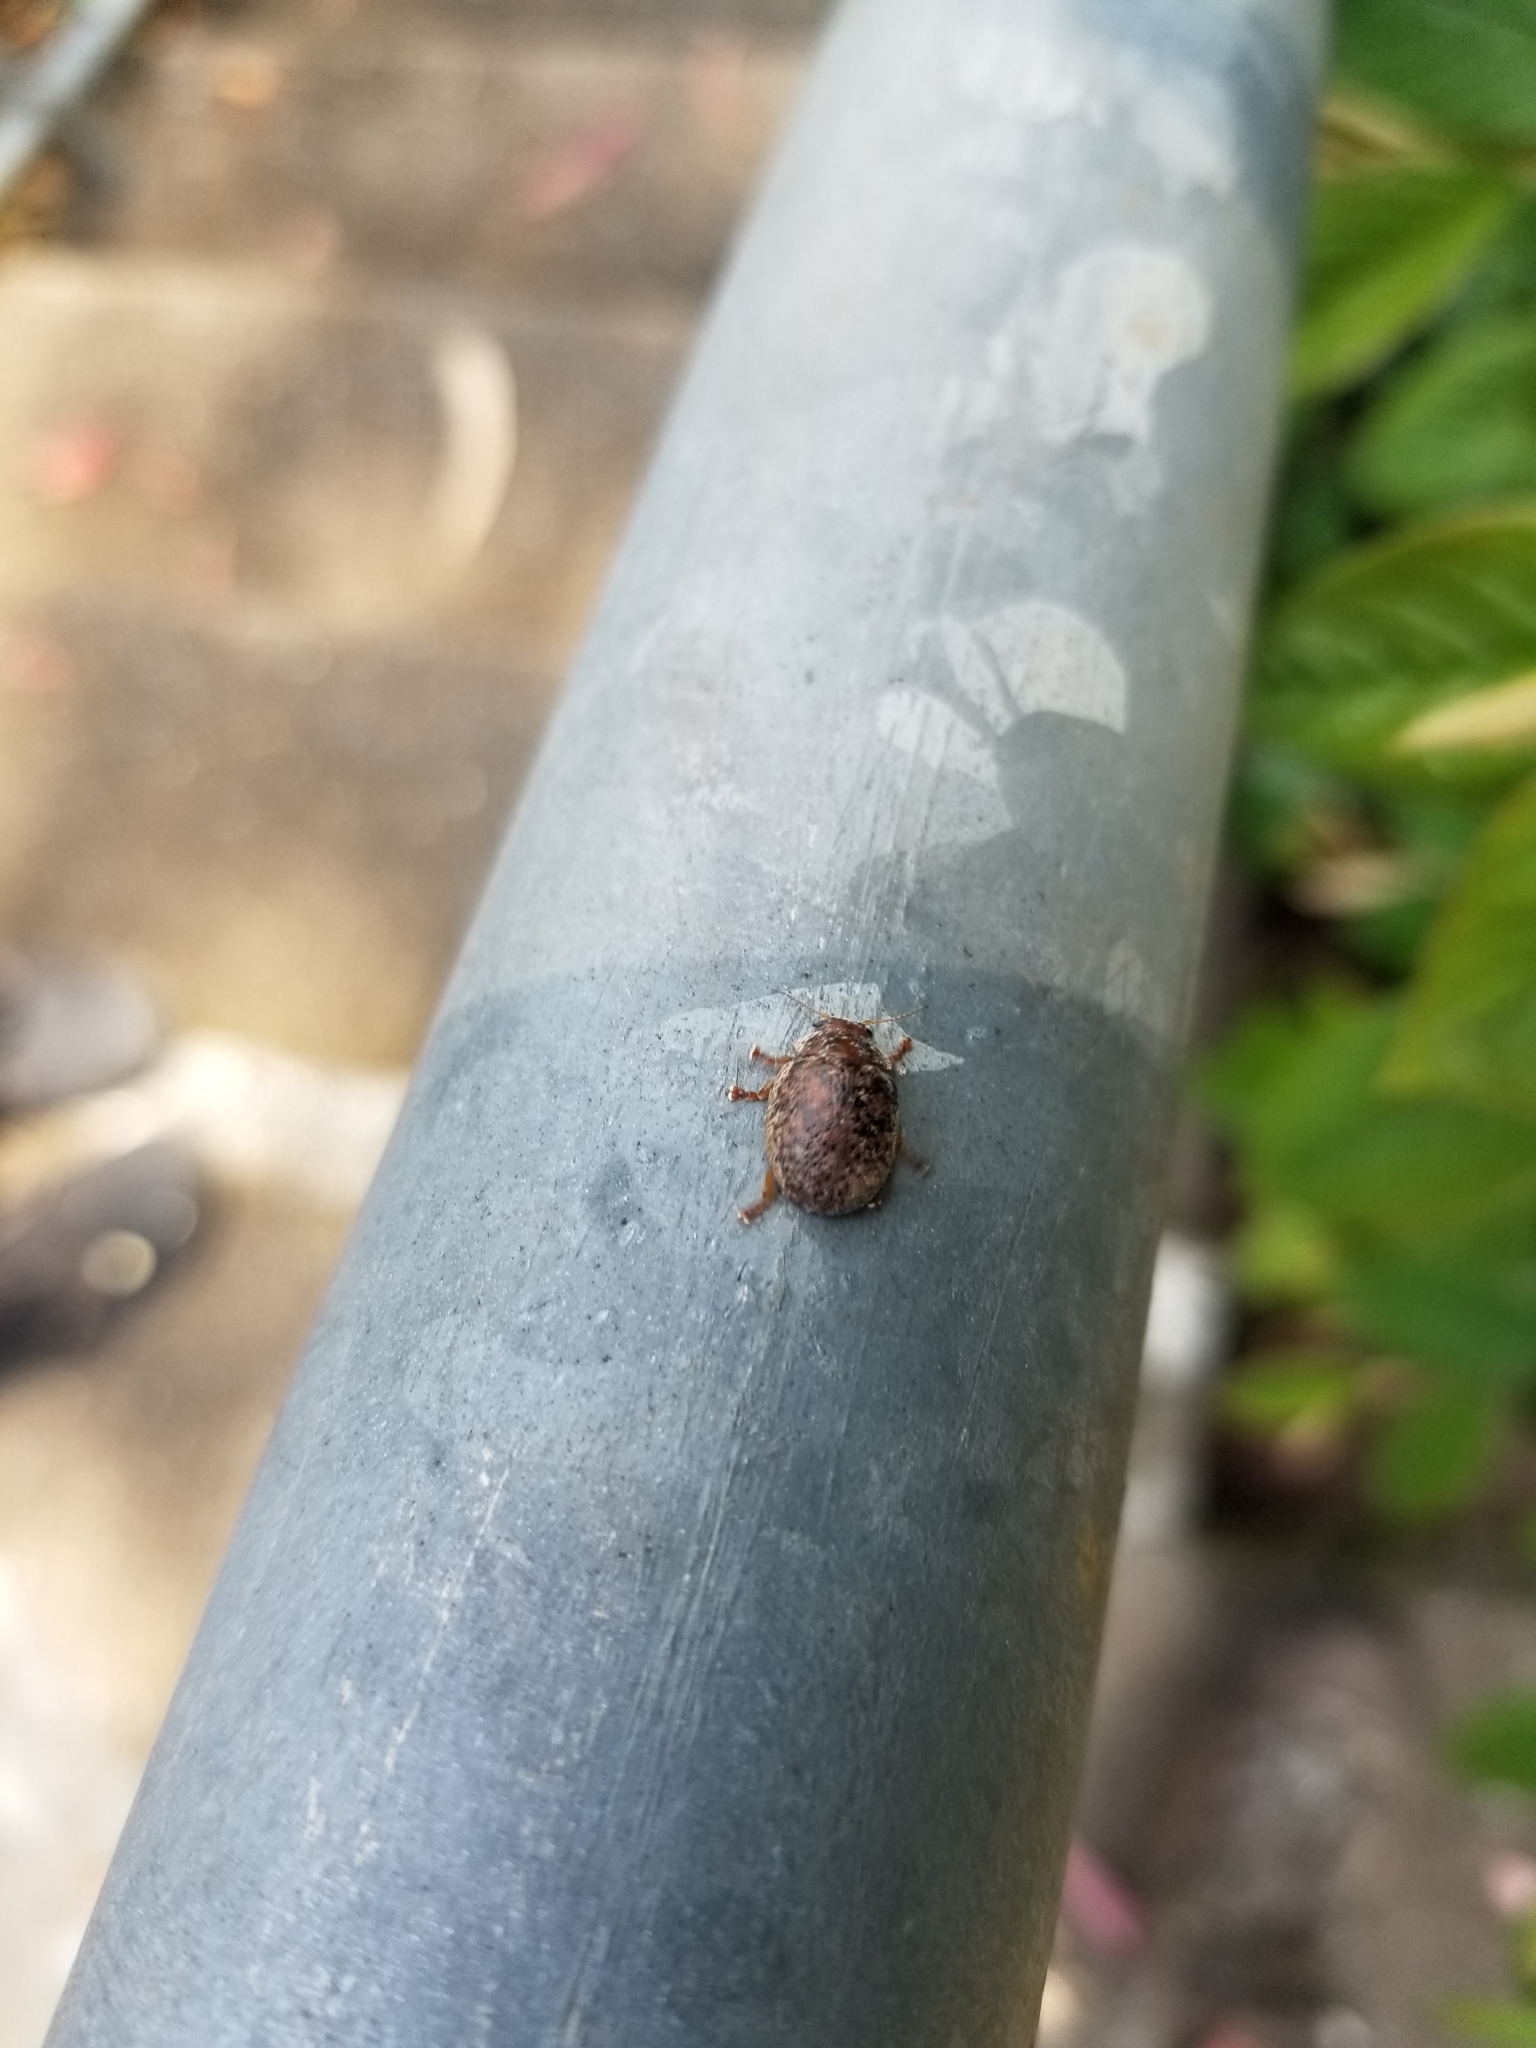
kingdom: Animalia
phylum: Arthropoda
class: Insecta
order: Coleoptera
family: Chrysomelidae
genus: Trachymela
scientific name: Trachymela sloanei
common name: Australian tortoise beetle
